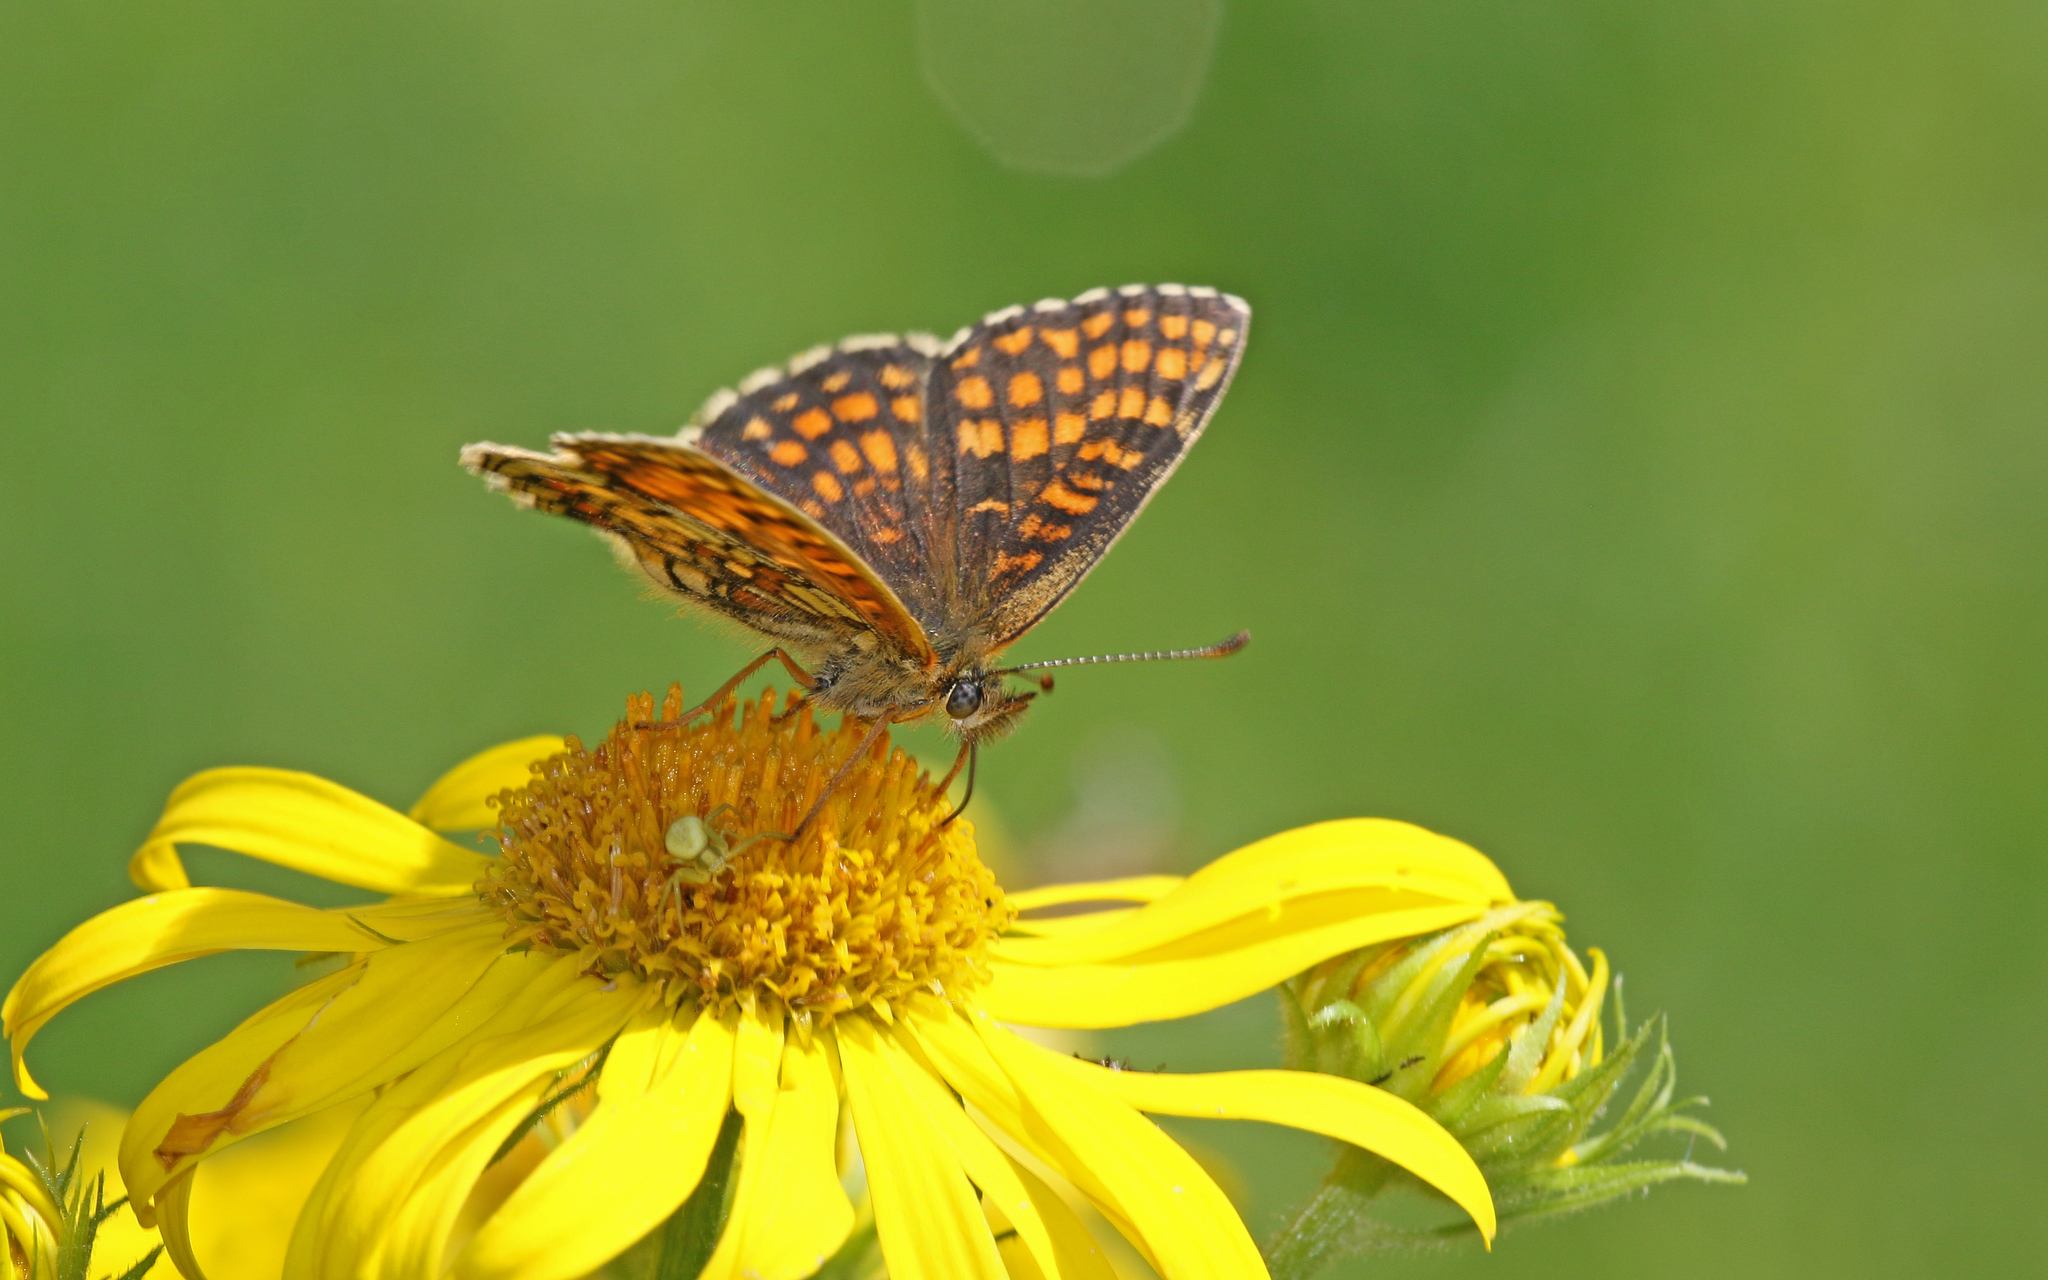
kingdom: Animalia
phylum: Arthropoda
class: Insecta
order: Lepidoptera
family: Nymphalidae
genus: Melitaea
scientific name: Melitaea athalia
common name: Heath fritillary
